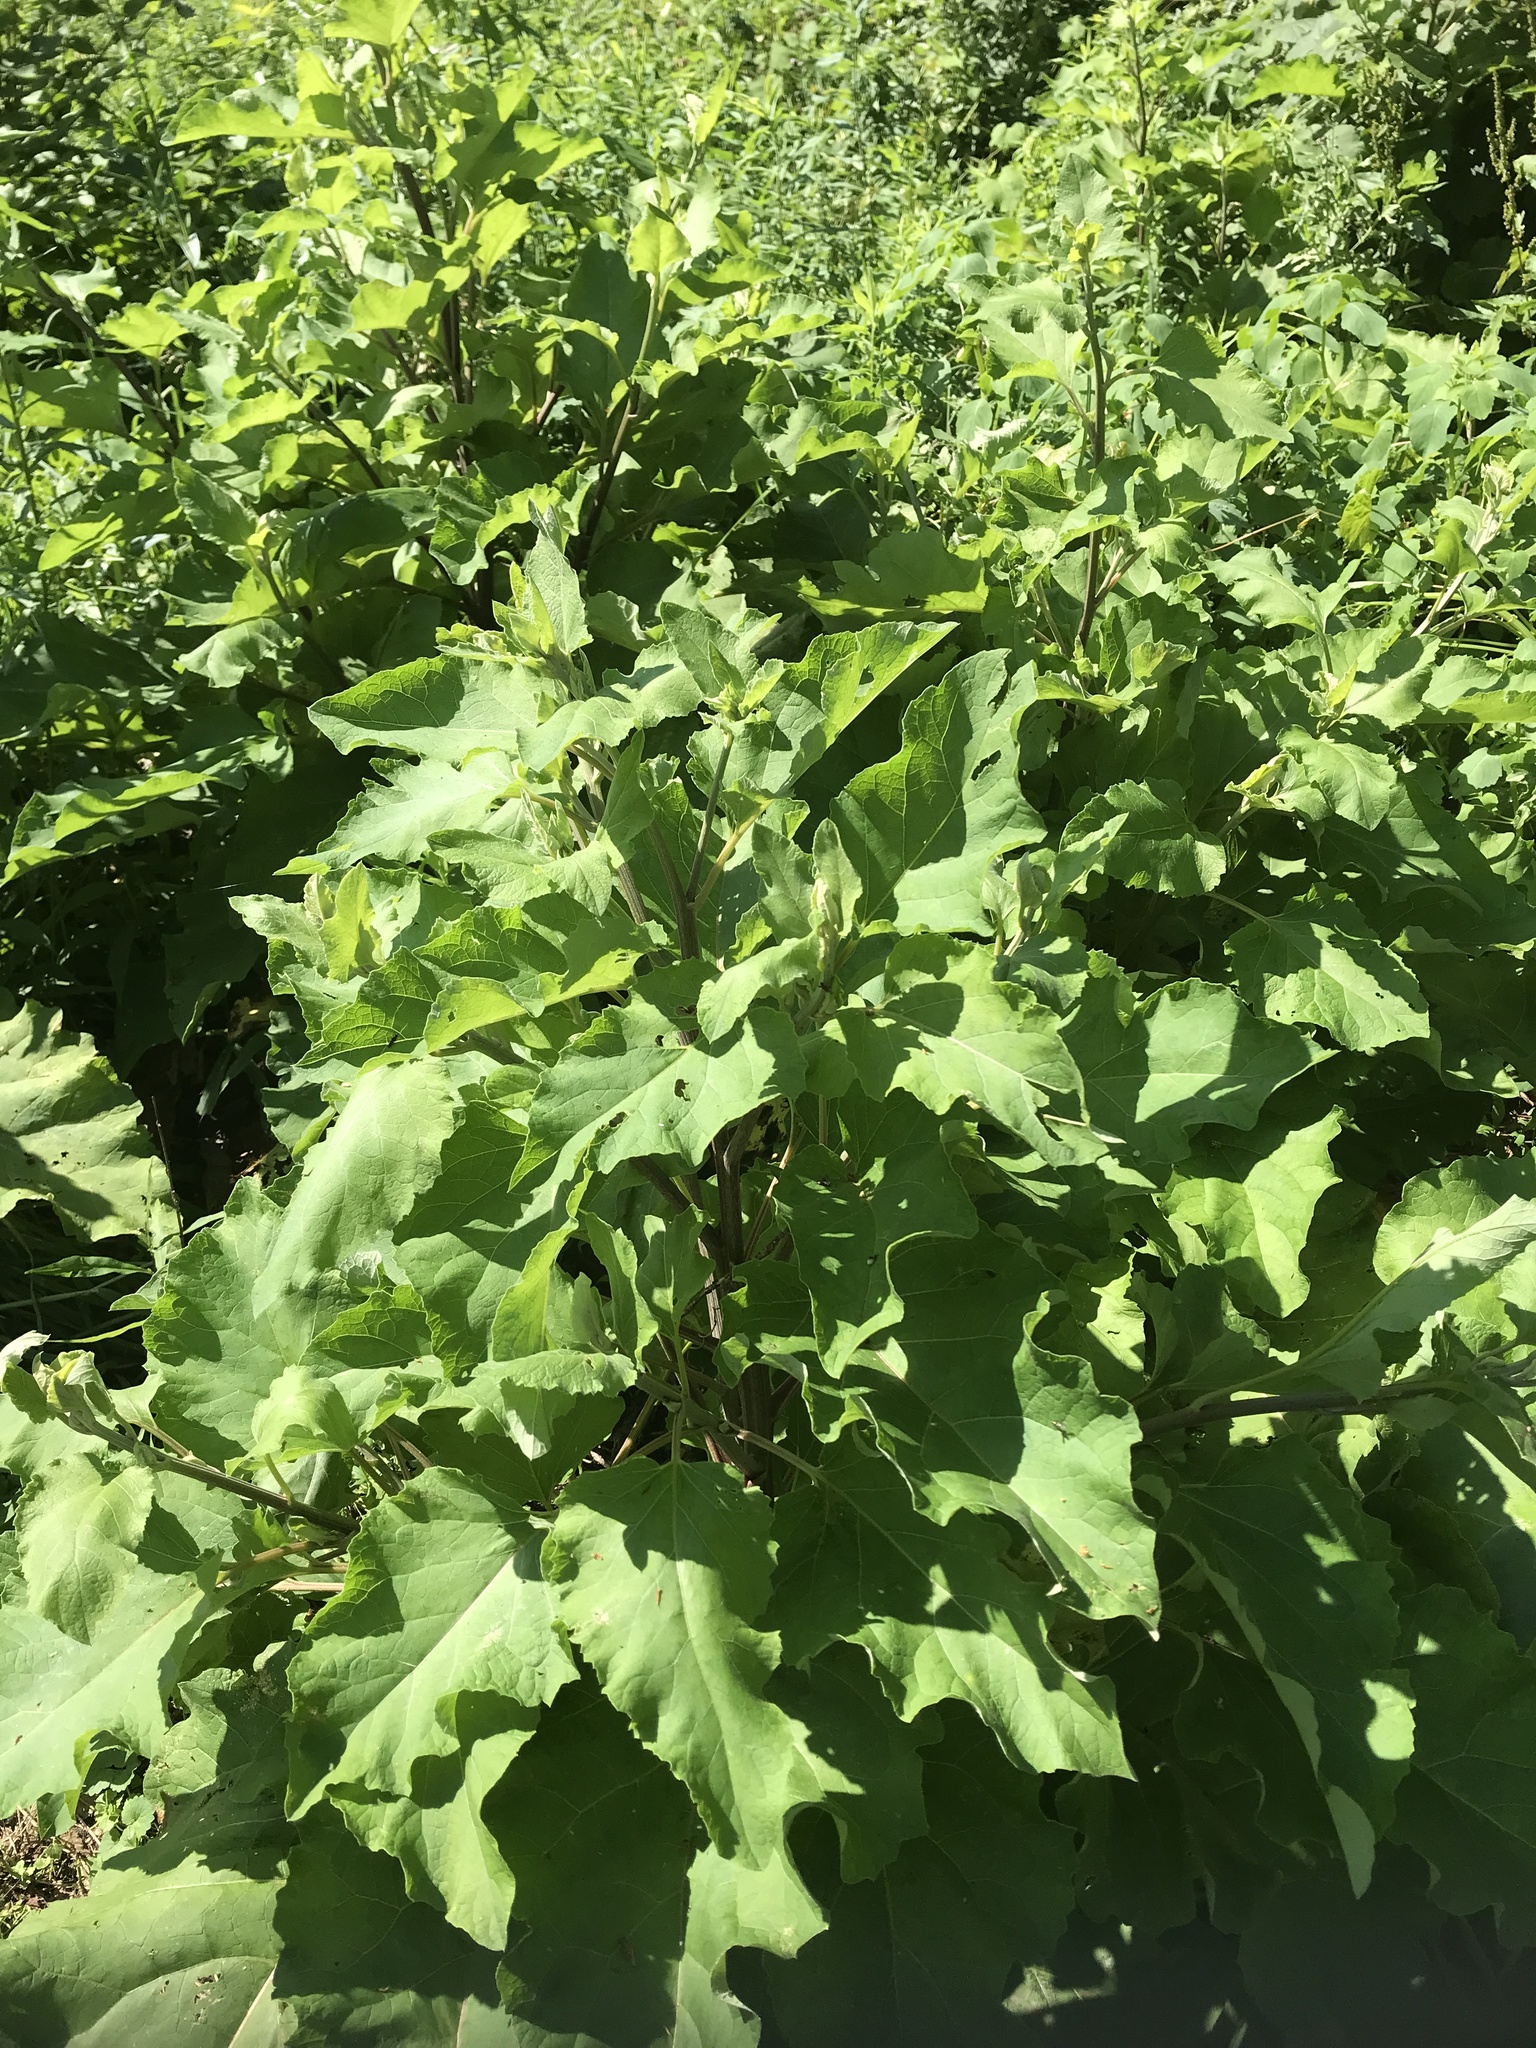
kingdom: Plantae
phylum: Tracheophyta
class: Magnoliopsida
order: Asterales
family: Asteraceae
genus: Arctium
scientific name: Arctium
